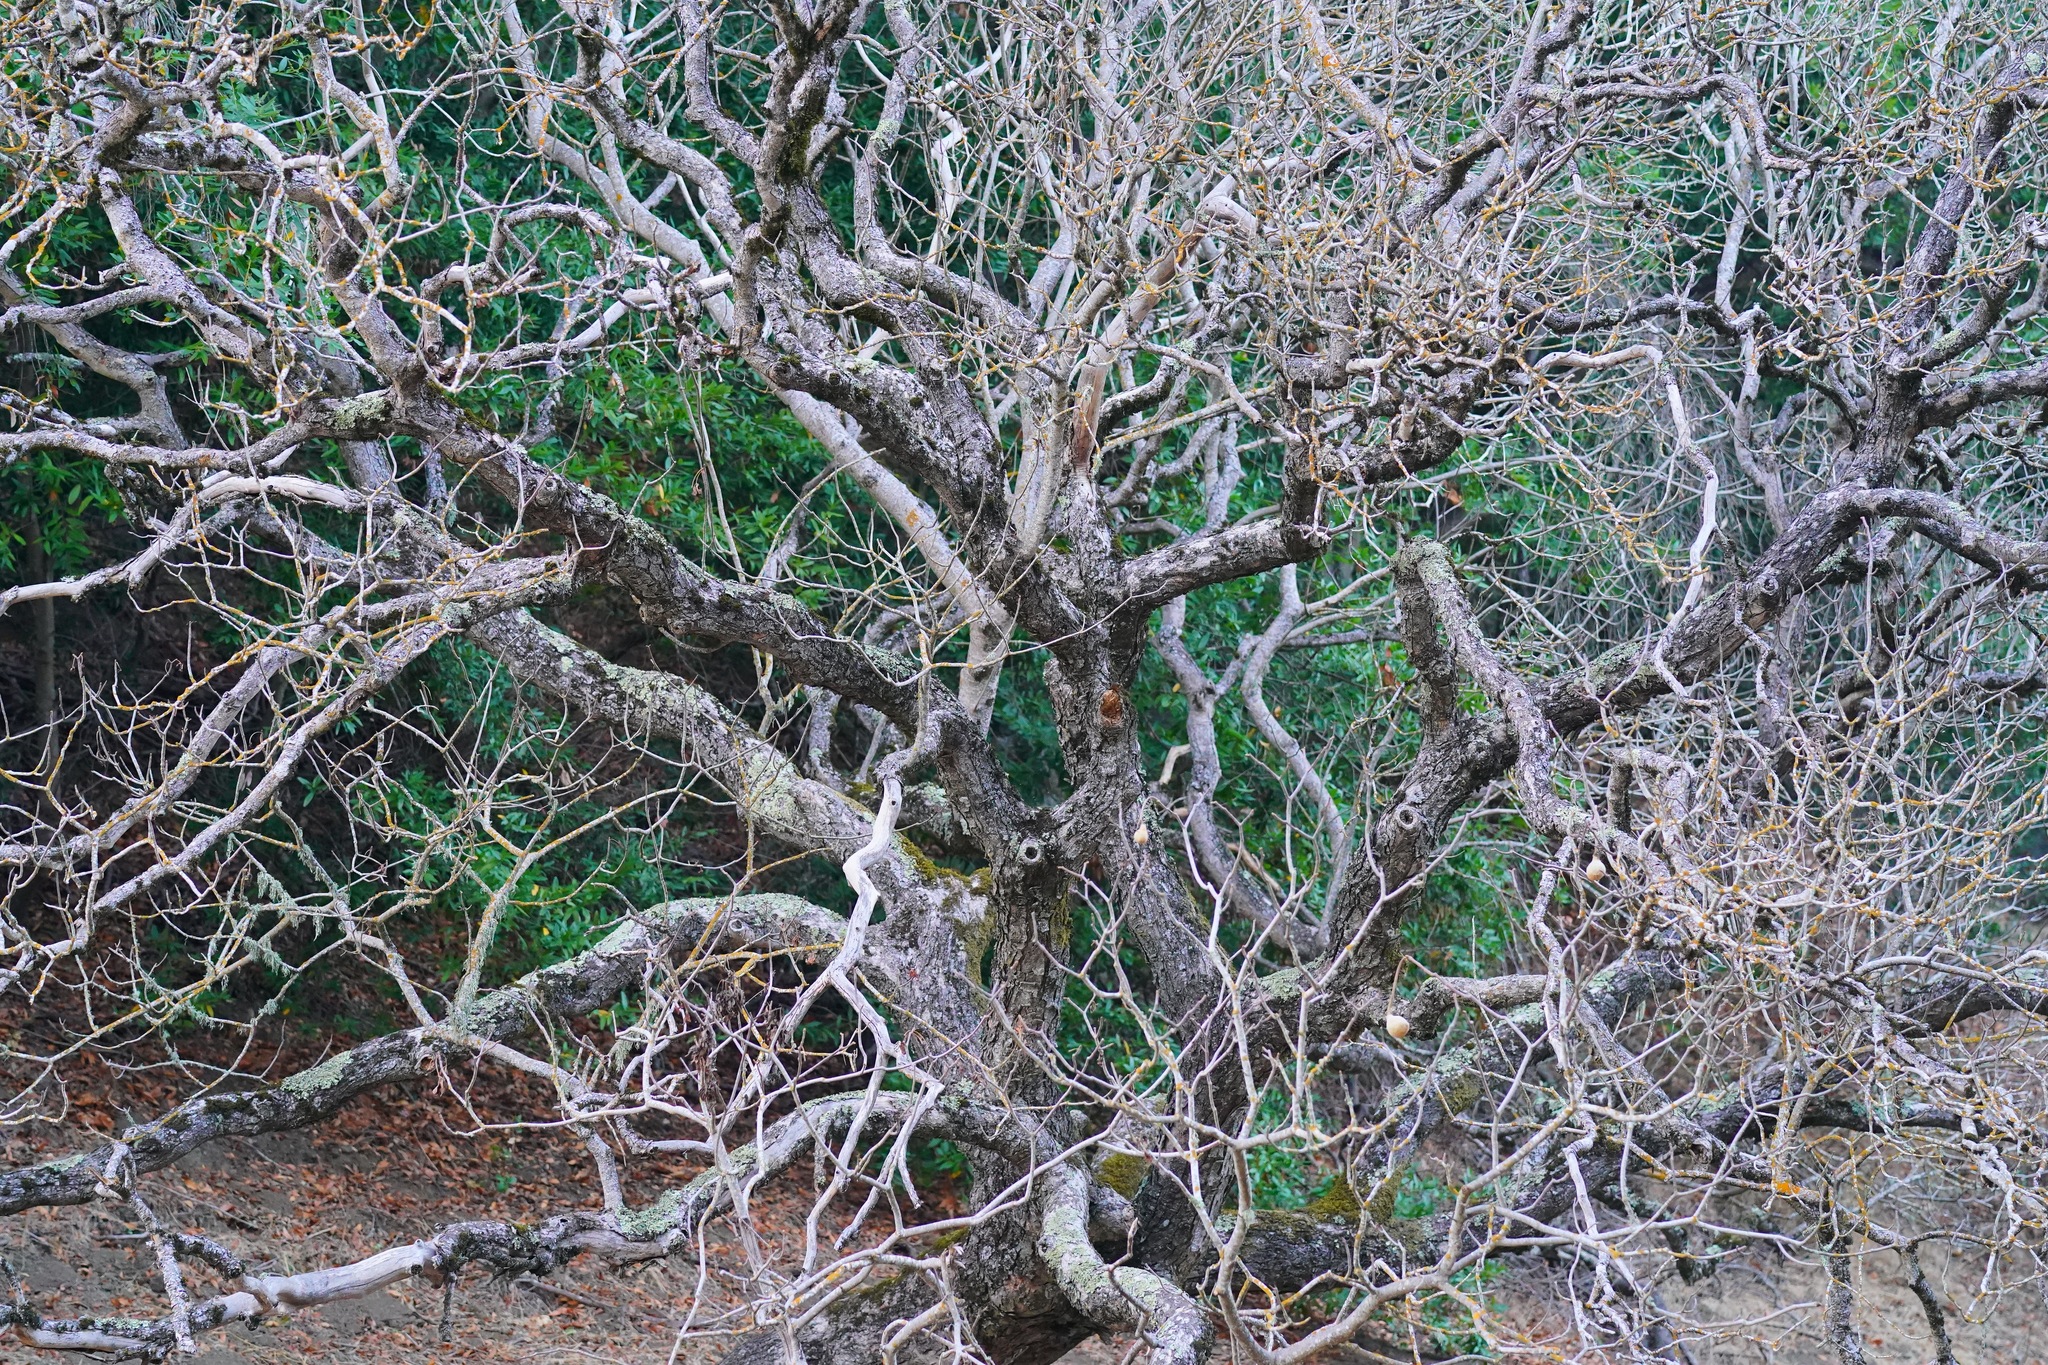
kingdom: Plantae
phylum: Tracheophyta
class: Magnoliopsida
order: Sapindales
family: Sapindaceae
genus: Aesculus
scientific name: Aesculus californica
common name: California buckeye
